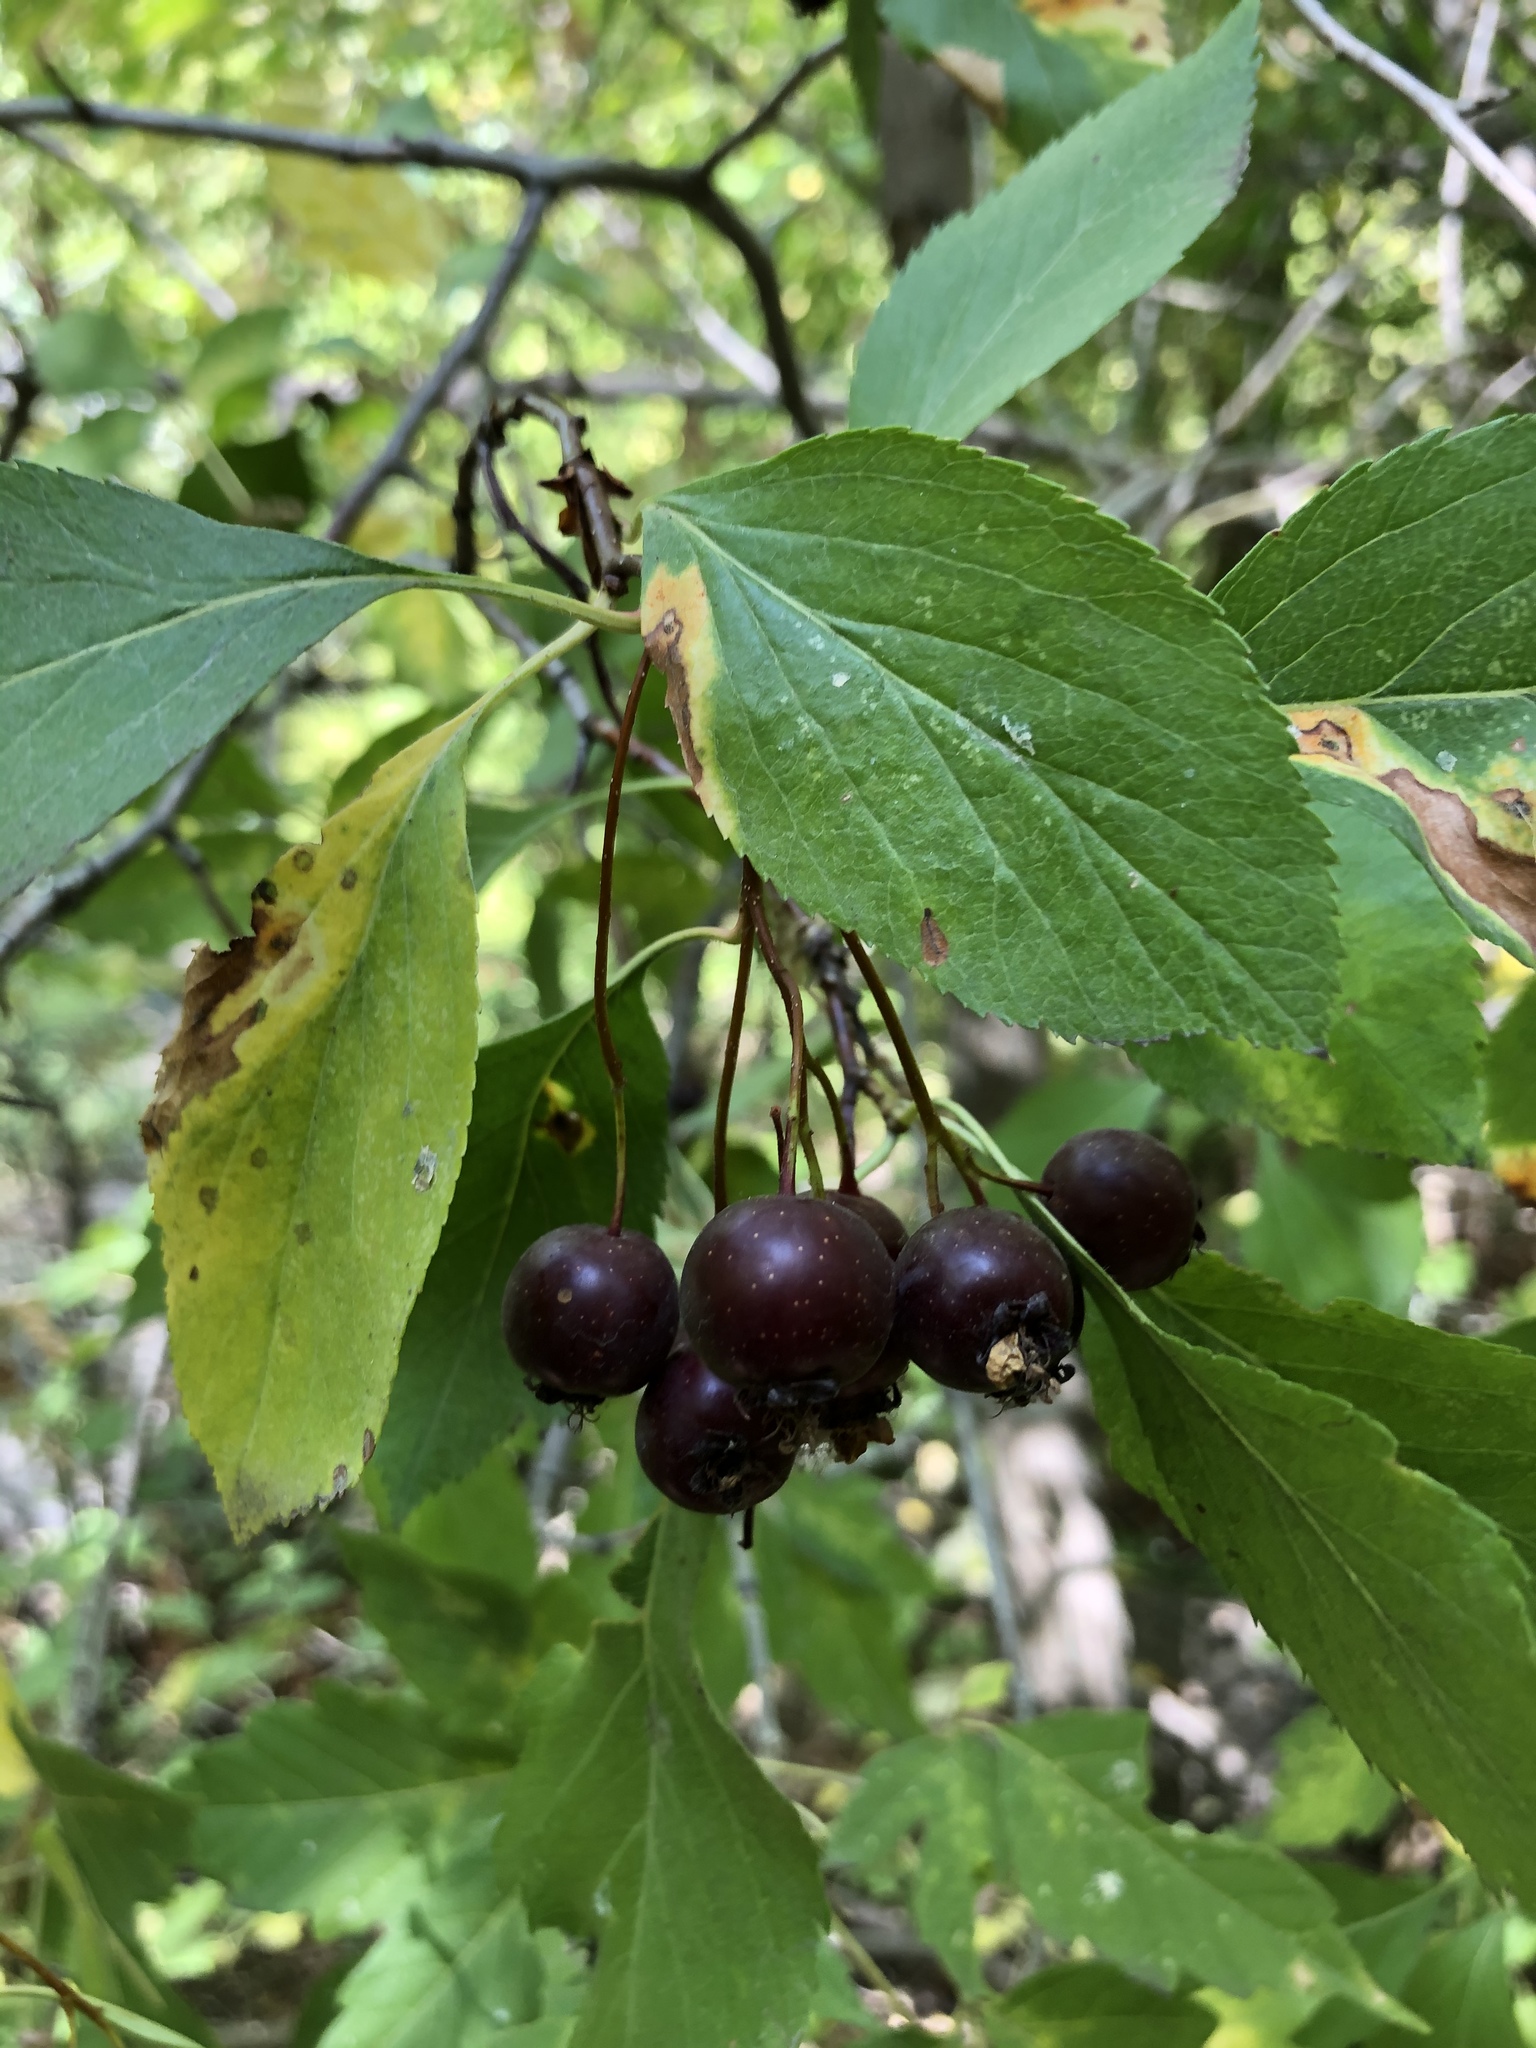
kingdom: Plantae
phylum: Tracheophyta
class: Magnoliopsida
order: Rosales
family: Rosaceae
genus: Crataegus
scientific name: Crataegus rivularis
